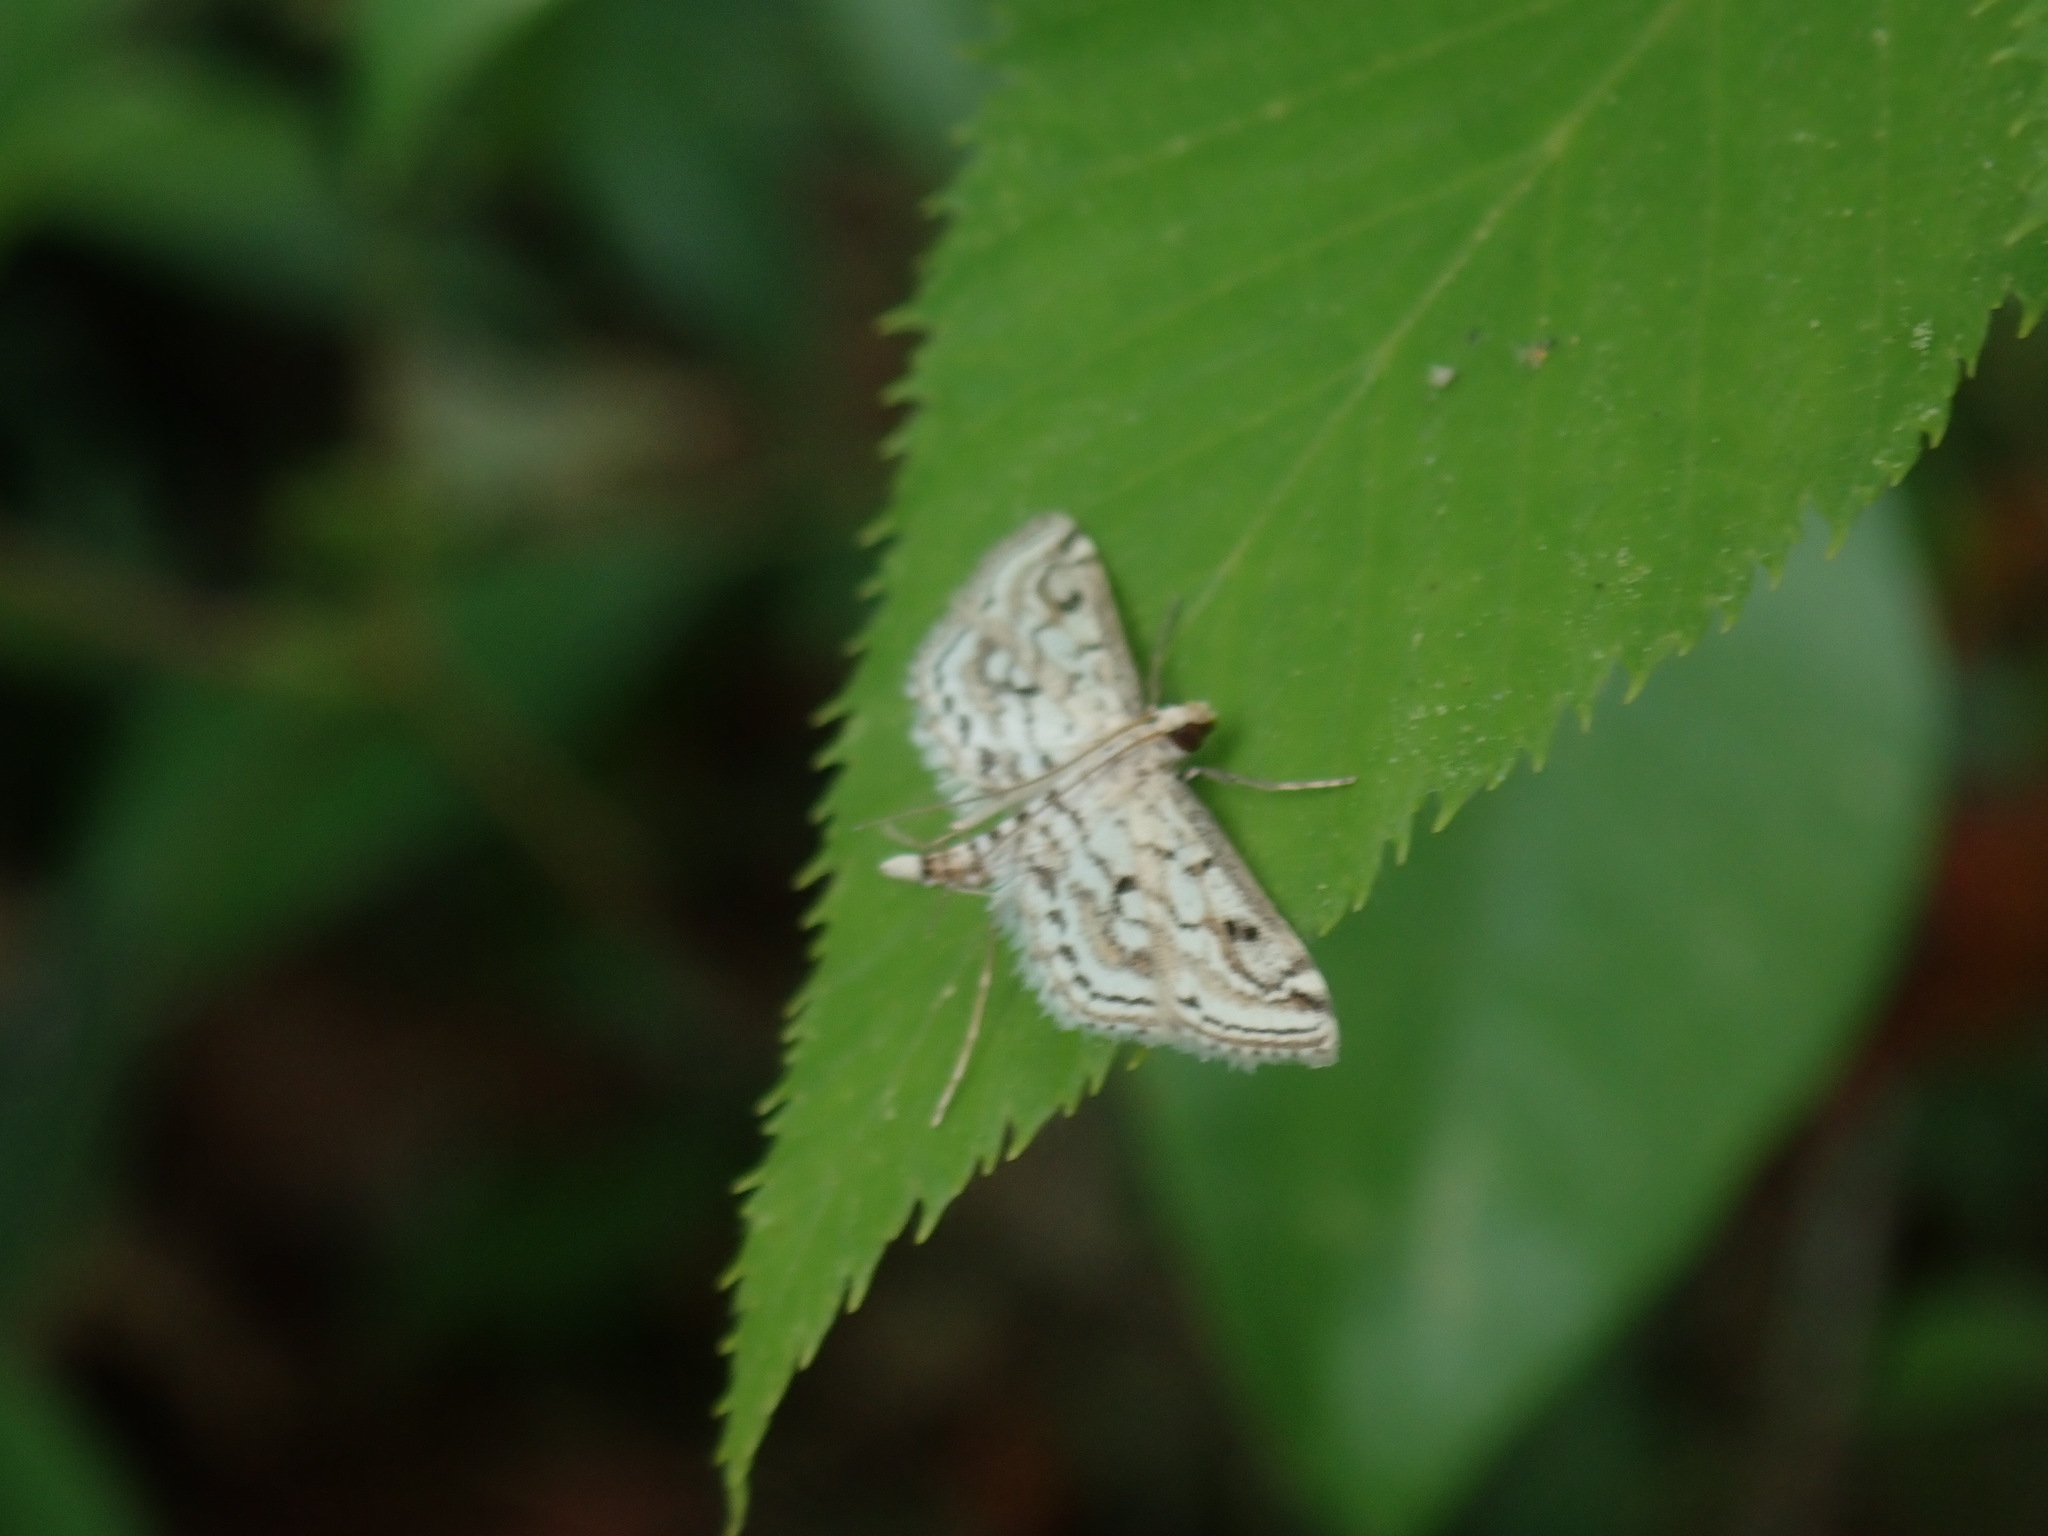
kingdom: Animalia
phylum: Arthropoda
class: Insecta
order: Lepidoptera
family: Crambidae
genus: Parapoynx
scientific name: Parapoynx allionealis
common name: Bladderwort casemaker
